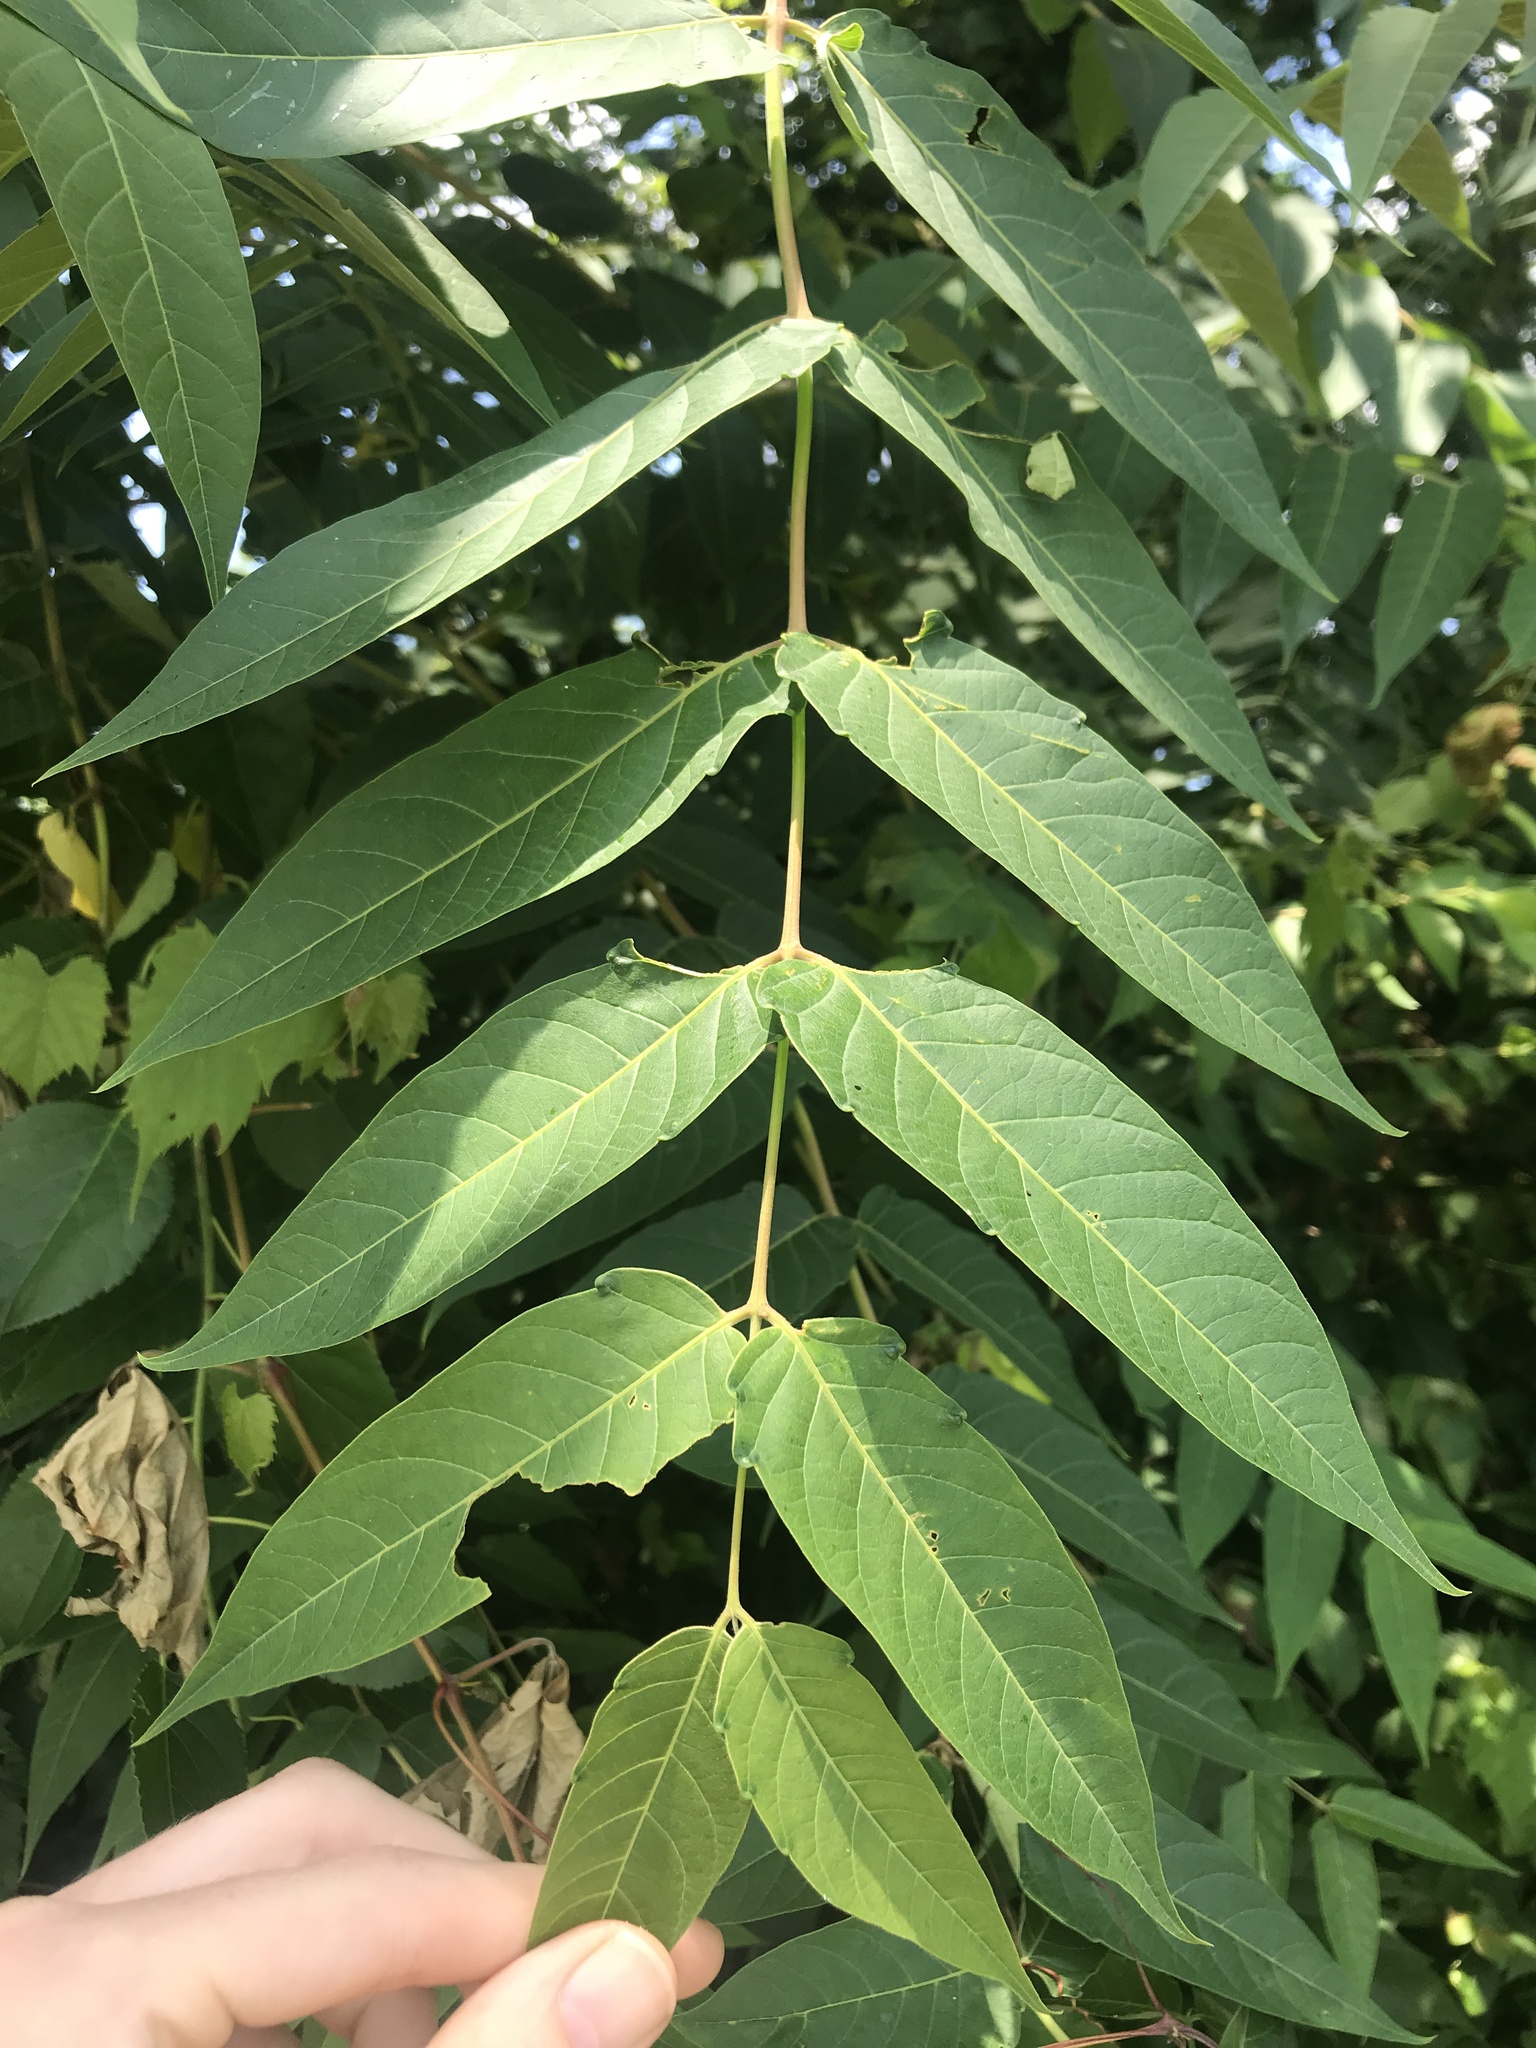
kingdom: Plantae
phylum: Tracheophyta
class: Magnoliopsida
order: Sapindales
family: Simaroubaceae
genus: Ailanthus
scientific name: Ailanthus altissima
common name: Tree-of-heaven
